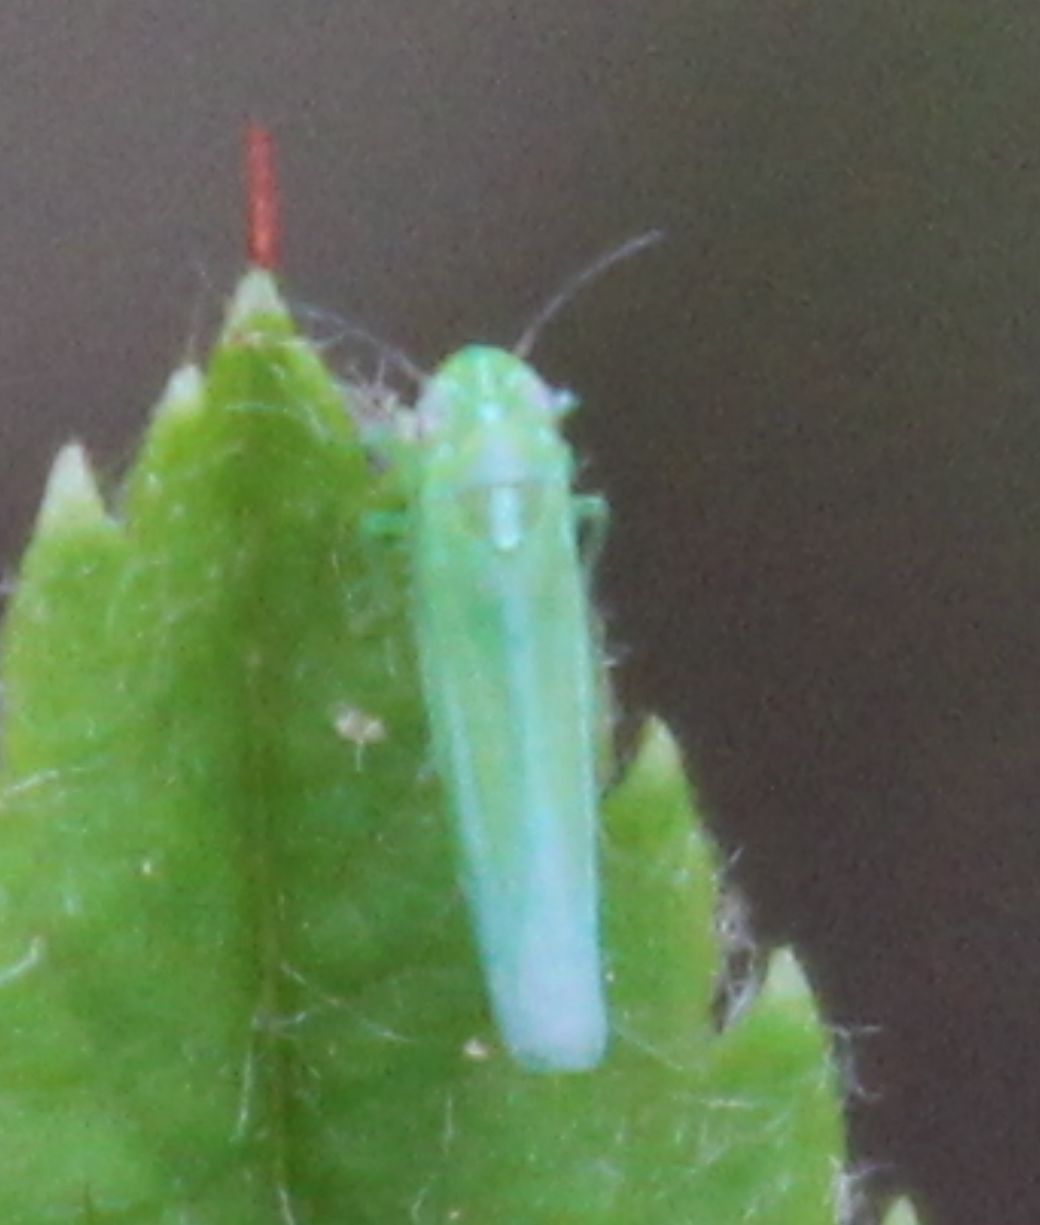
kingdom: Animalia
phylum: Arthropoda
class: Insecta
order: Hemiptera
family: Cicadellidae
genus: Hebata
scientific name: Hebata vitis
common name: The smaller green leafhopper
